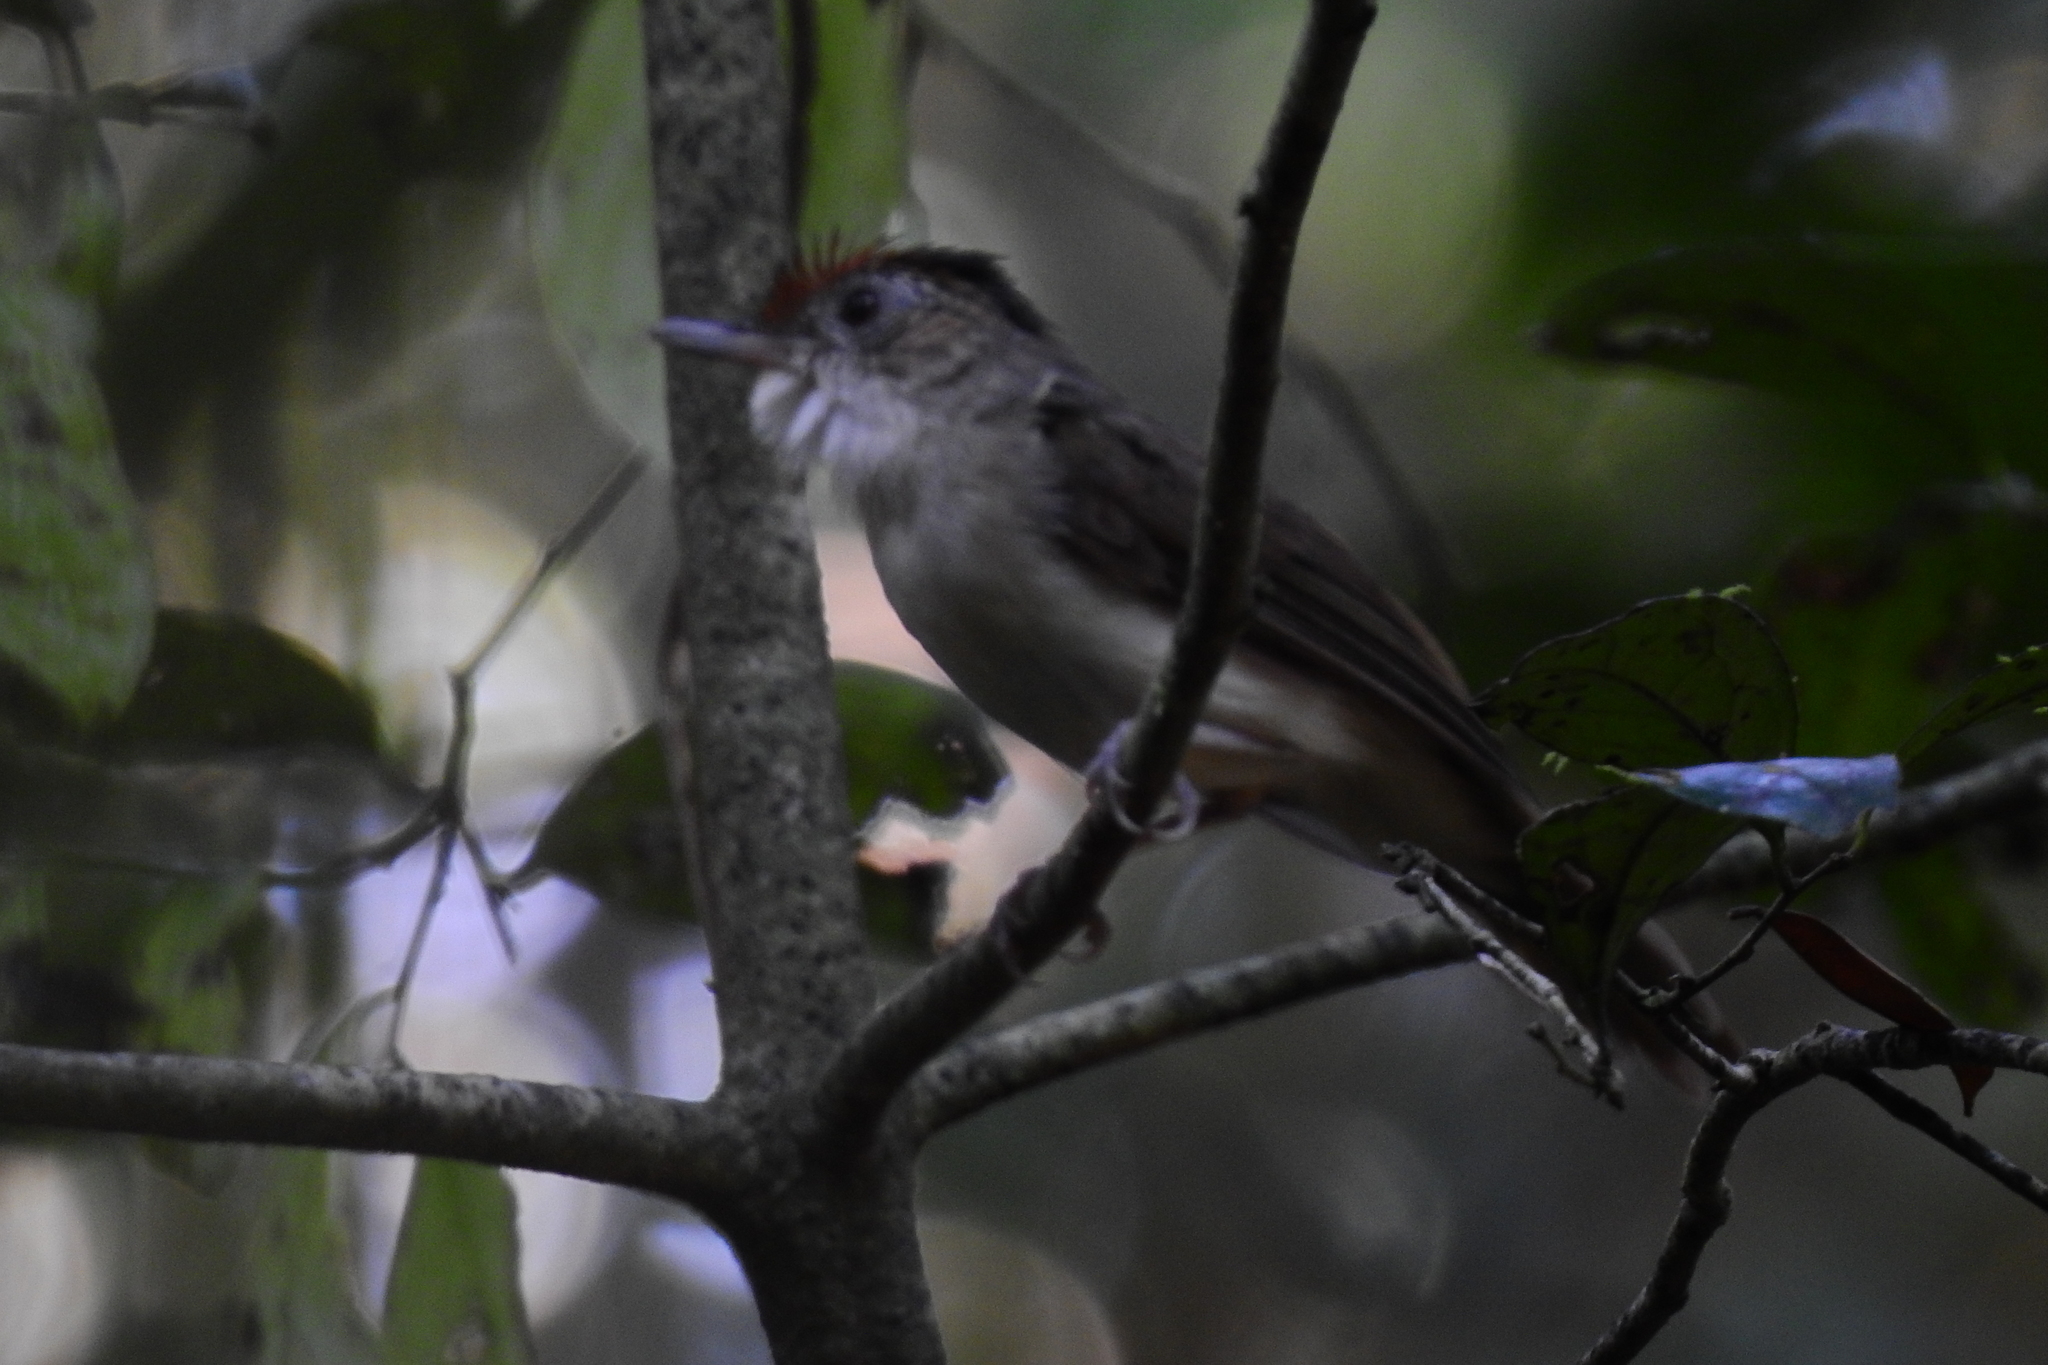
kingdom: Animalia
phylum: Chordata
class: Aves
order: Passeriformes
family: Pellorneidae
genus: Malacopteron
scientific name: Malacopteron cinereum
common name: Scaly-crowned babbler
